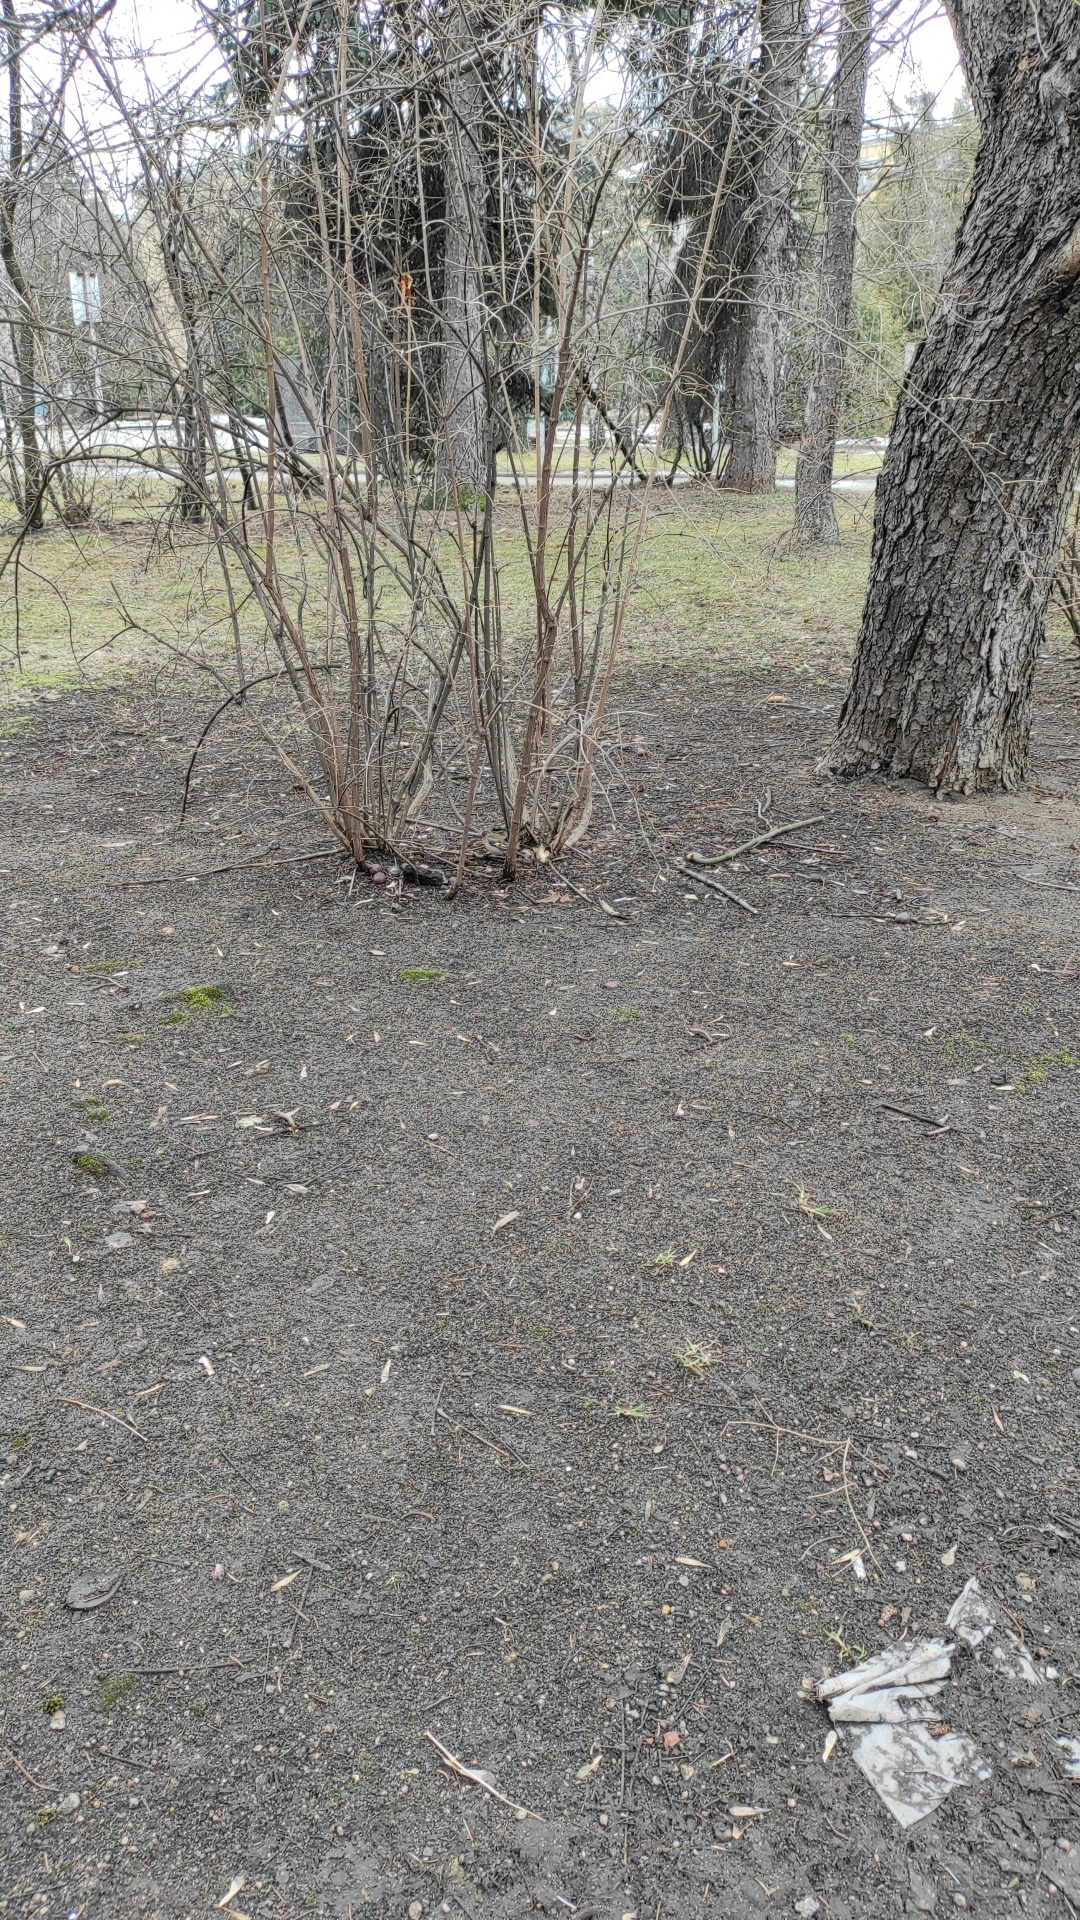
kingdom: Animalia
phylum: Chordata
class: Aves
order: Passeriformes
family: Fringillidae
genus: Fringilla
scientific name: Fringilla coelebs
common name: Common chaffinch
